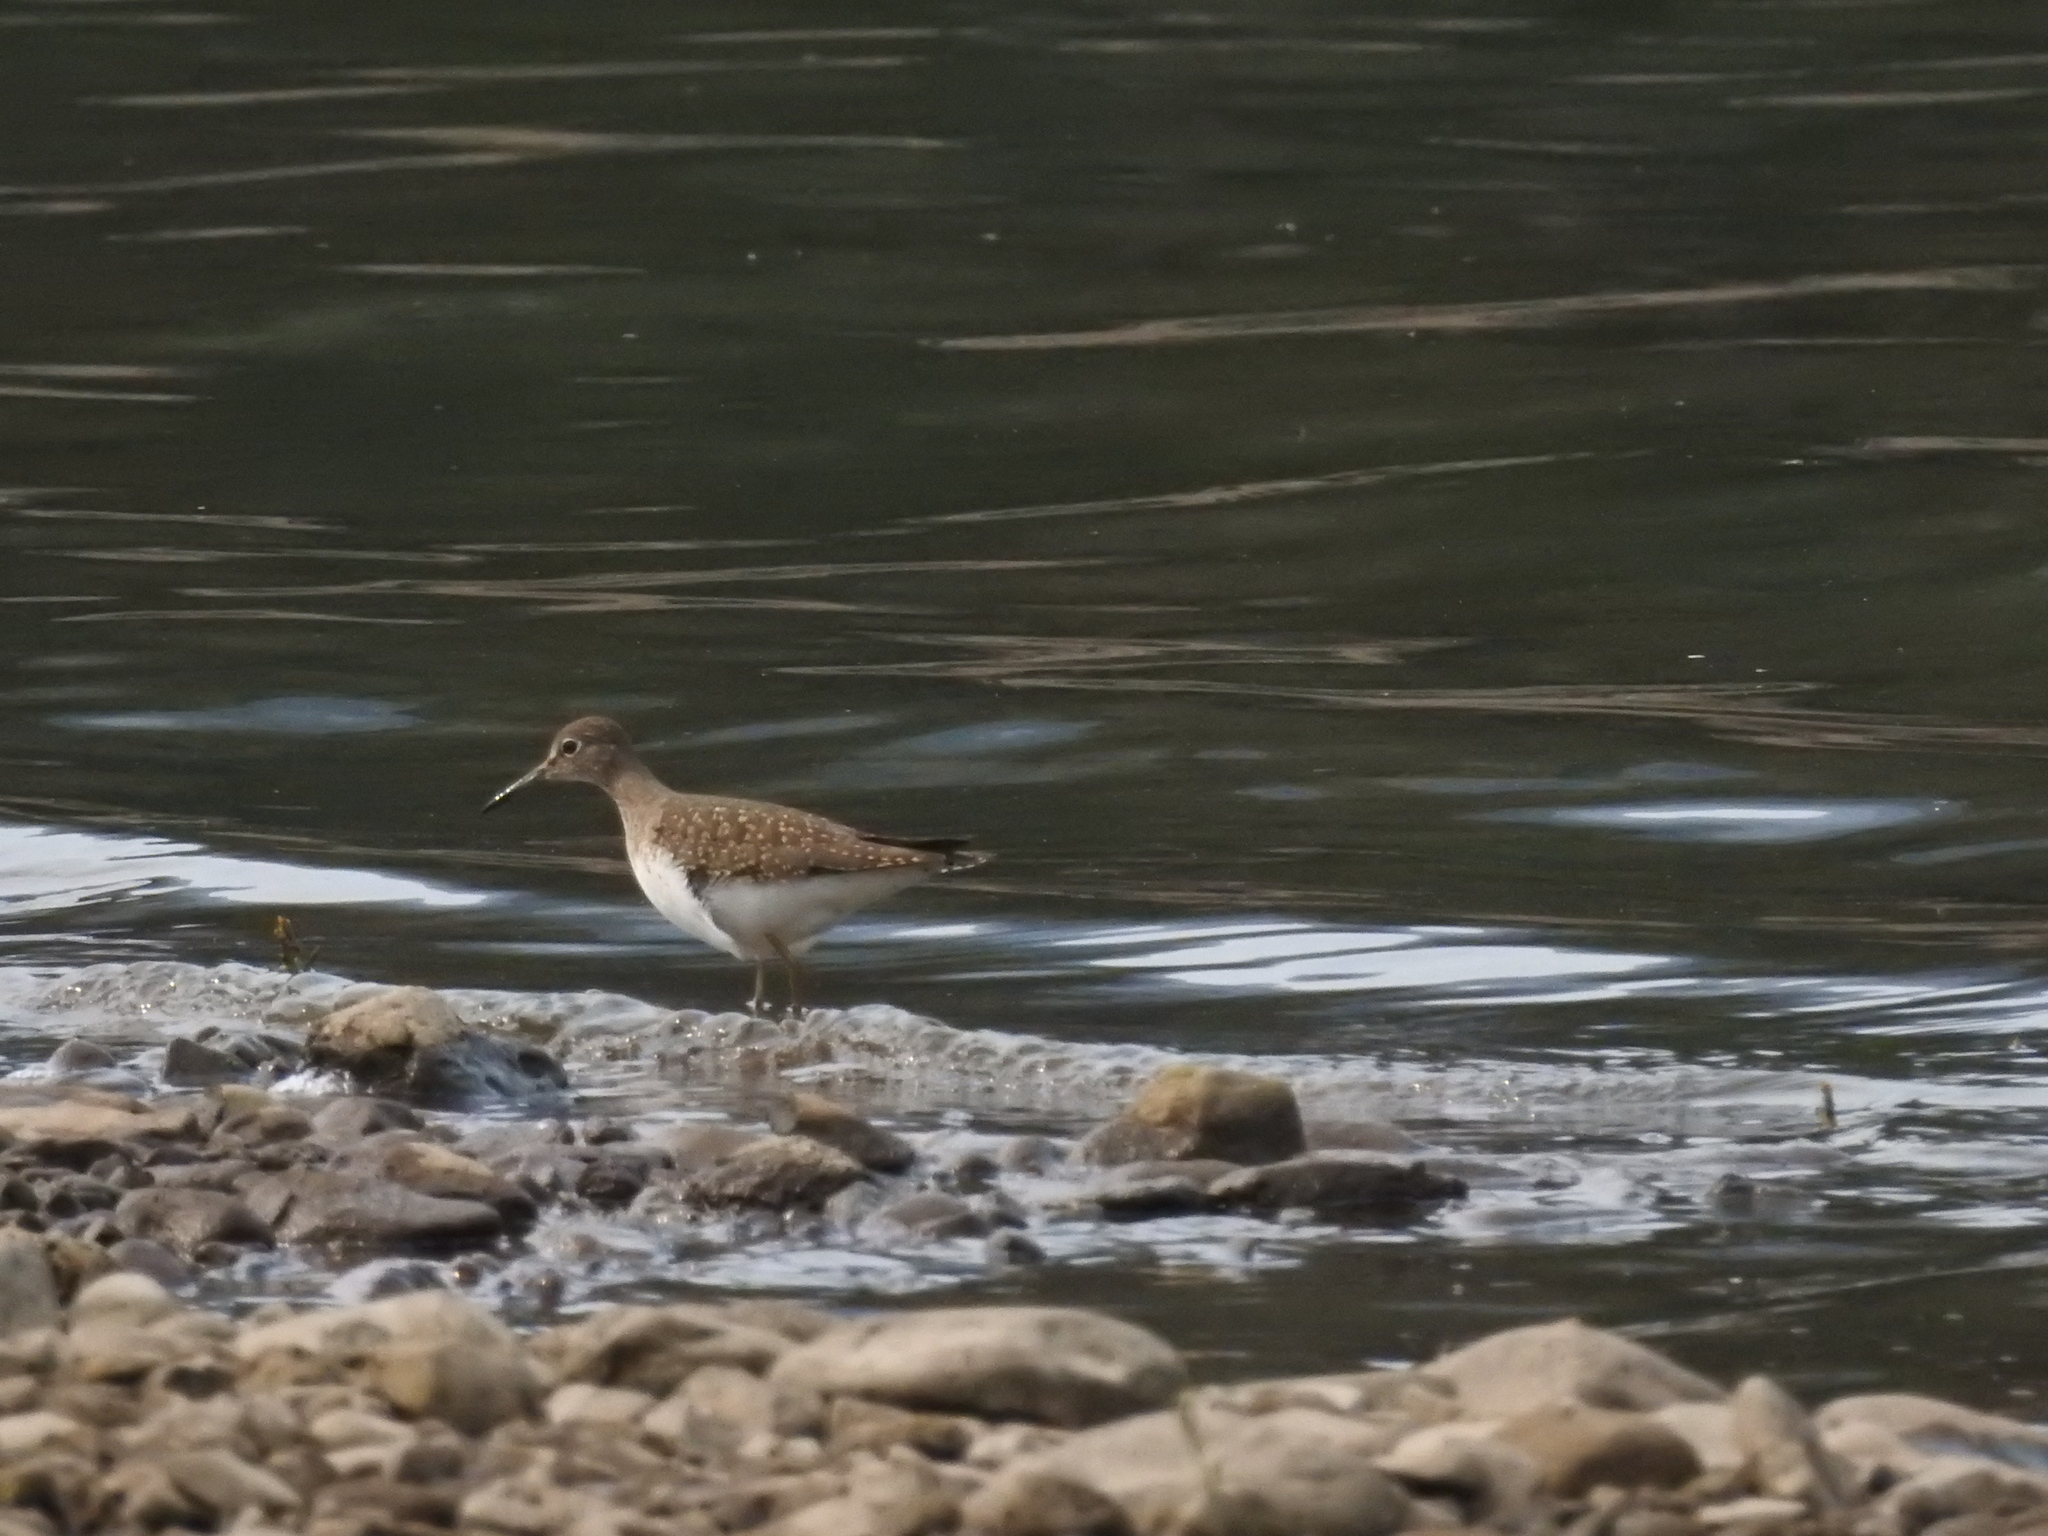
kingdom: Animalia
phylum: Chordata
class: Aves
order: Charadriiformes
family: Scolopacidae
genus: Tringa
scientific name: Tringa solitaria
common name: Solitary sandpiper
